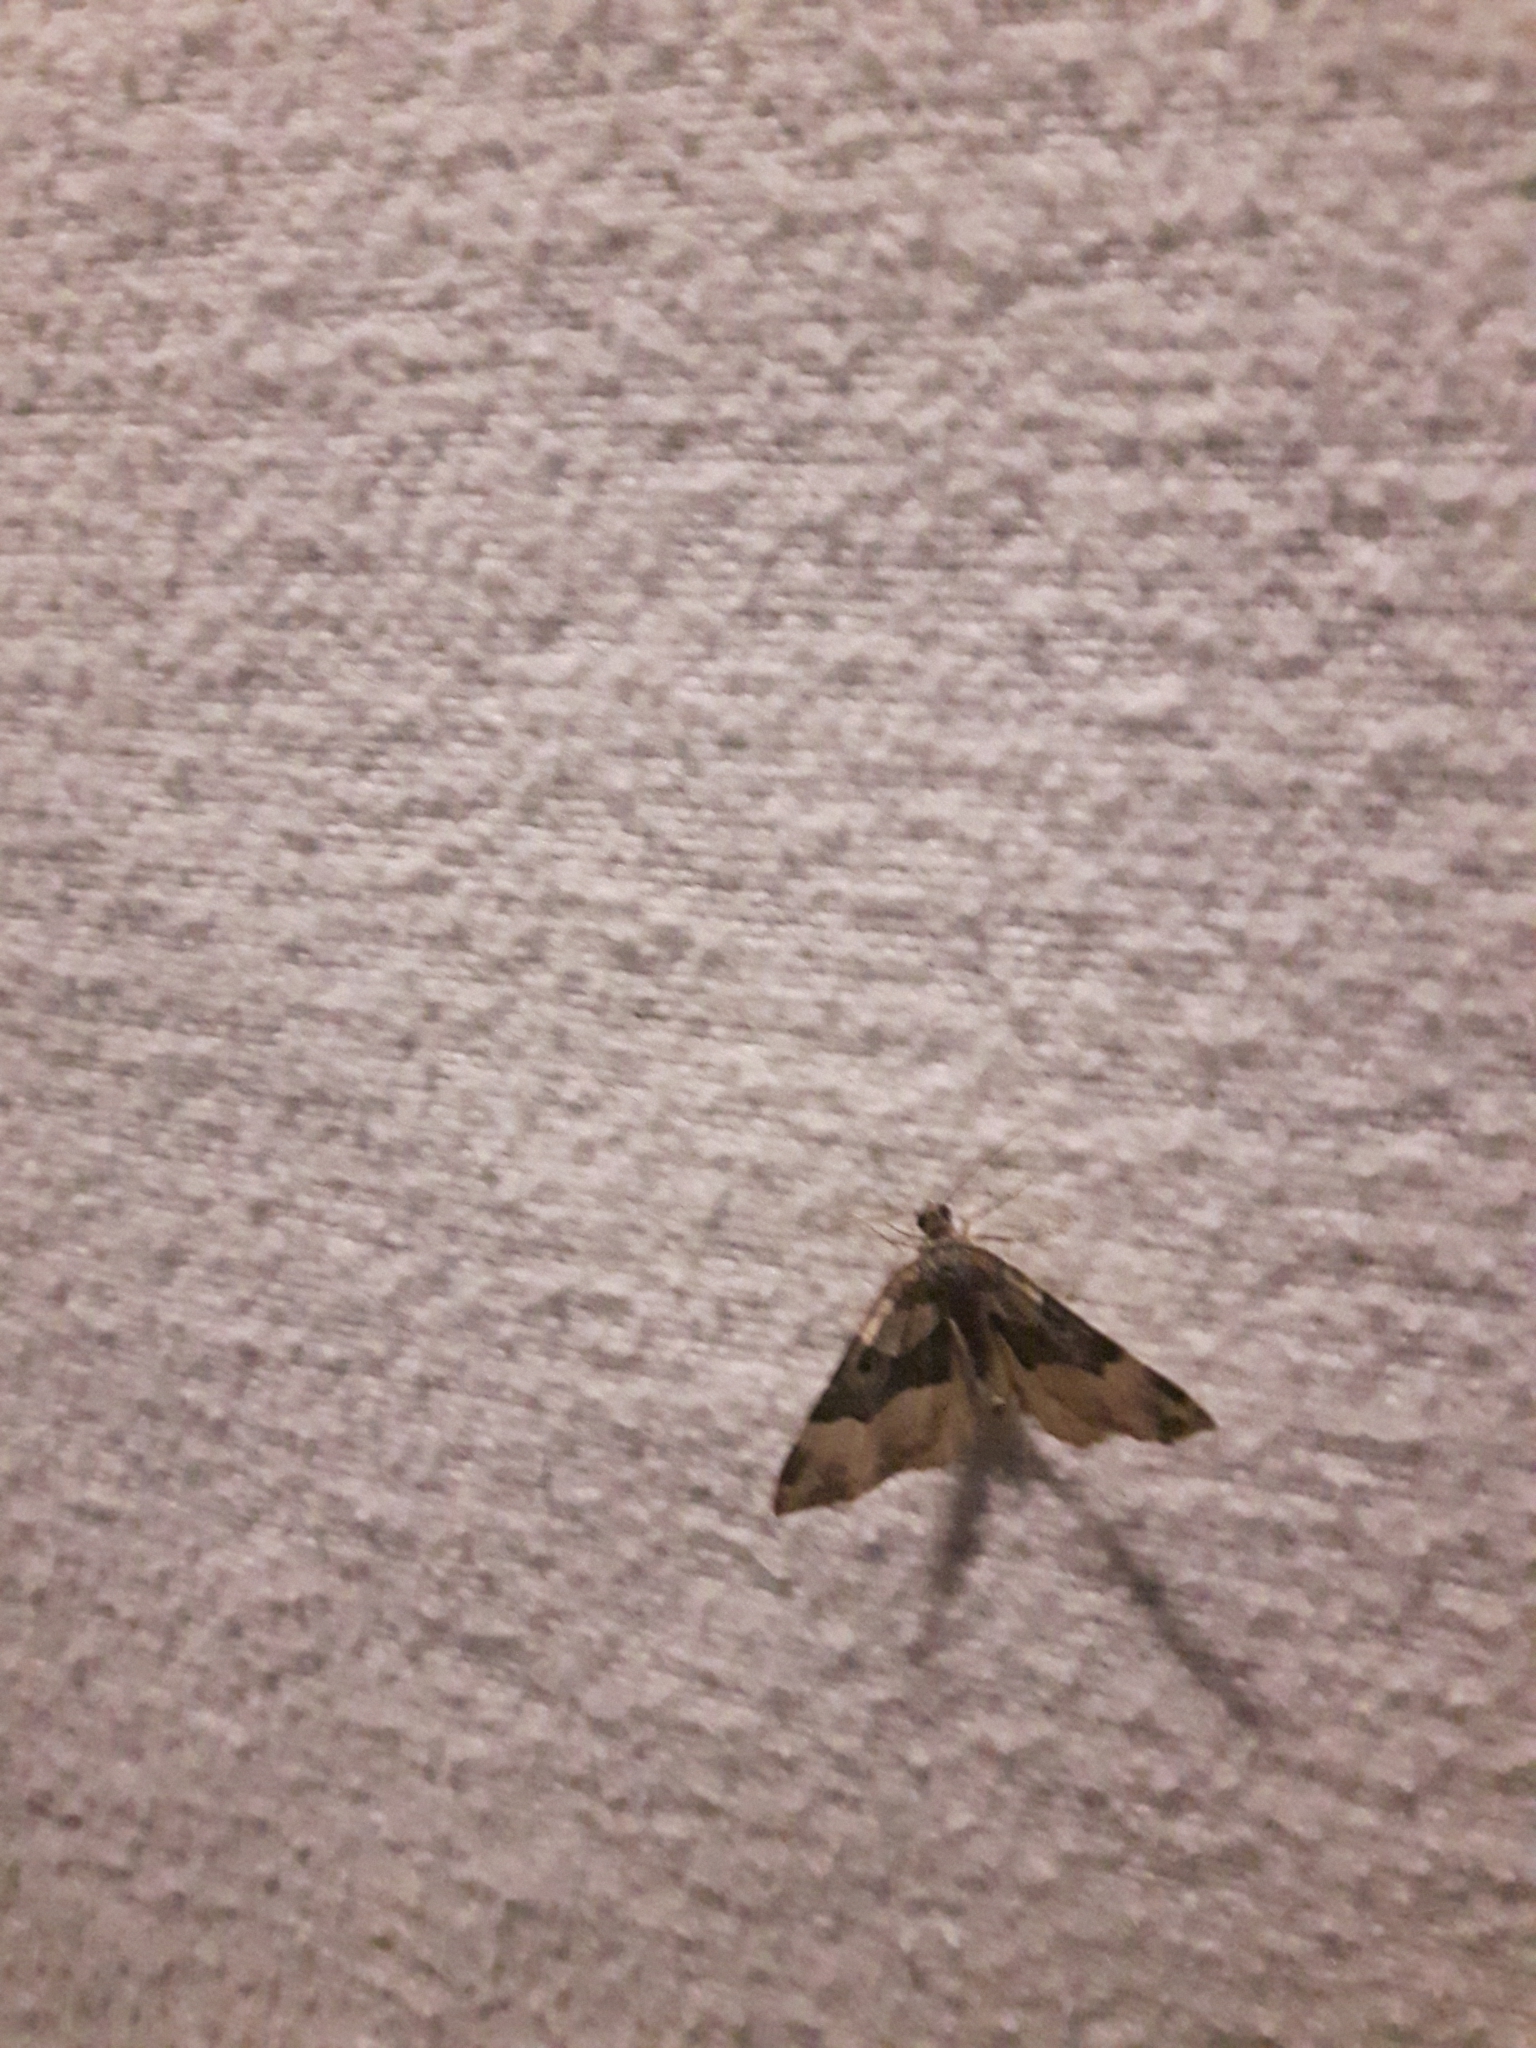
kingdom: Animalia
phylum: Arthropoda
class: Insecta
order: Lepidoptera
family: Erebidae
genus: Hypena
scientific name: Hypena edictalis
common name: Large snout
